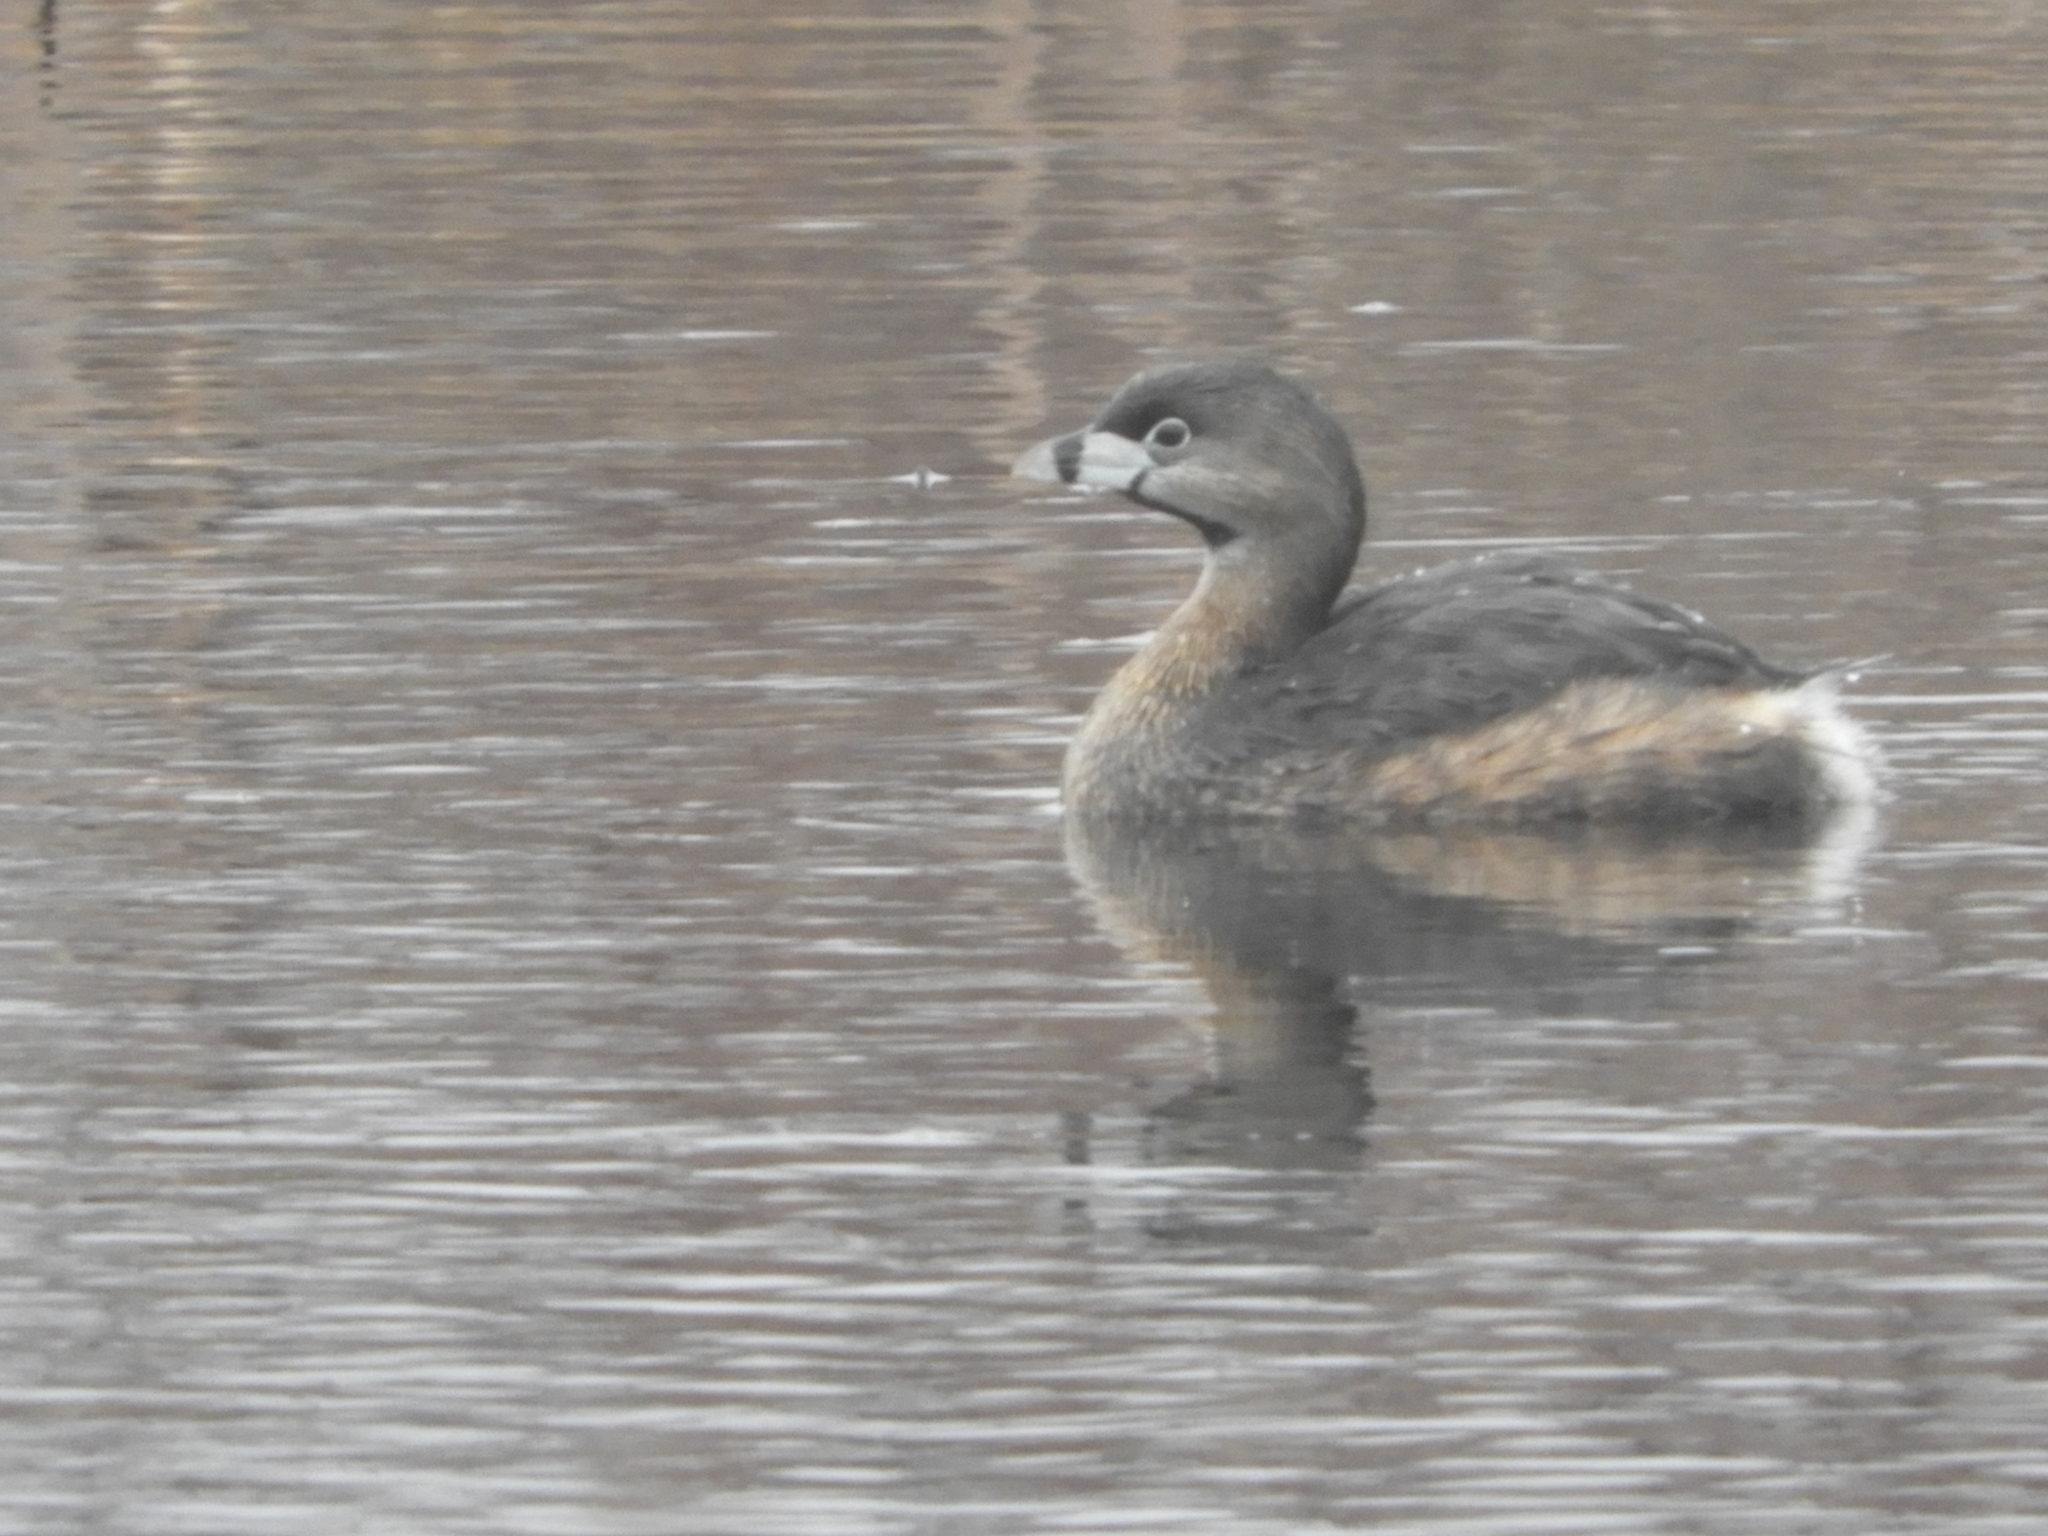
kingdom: Animalia
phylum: Chordata
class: Aves
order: Podicipediformes
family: Podicipedidae
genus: Podilymbus
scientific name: Podilymbus podiceps
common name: Pied-billed grebe
